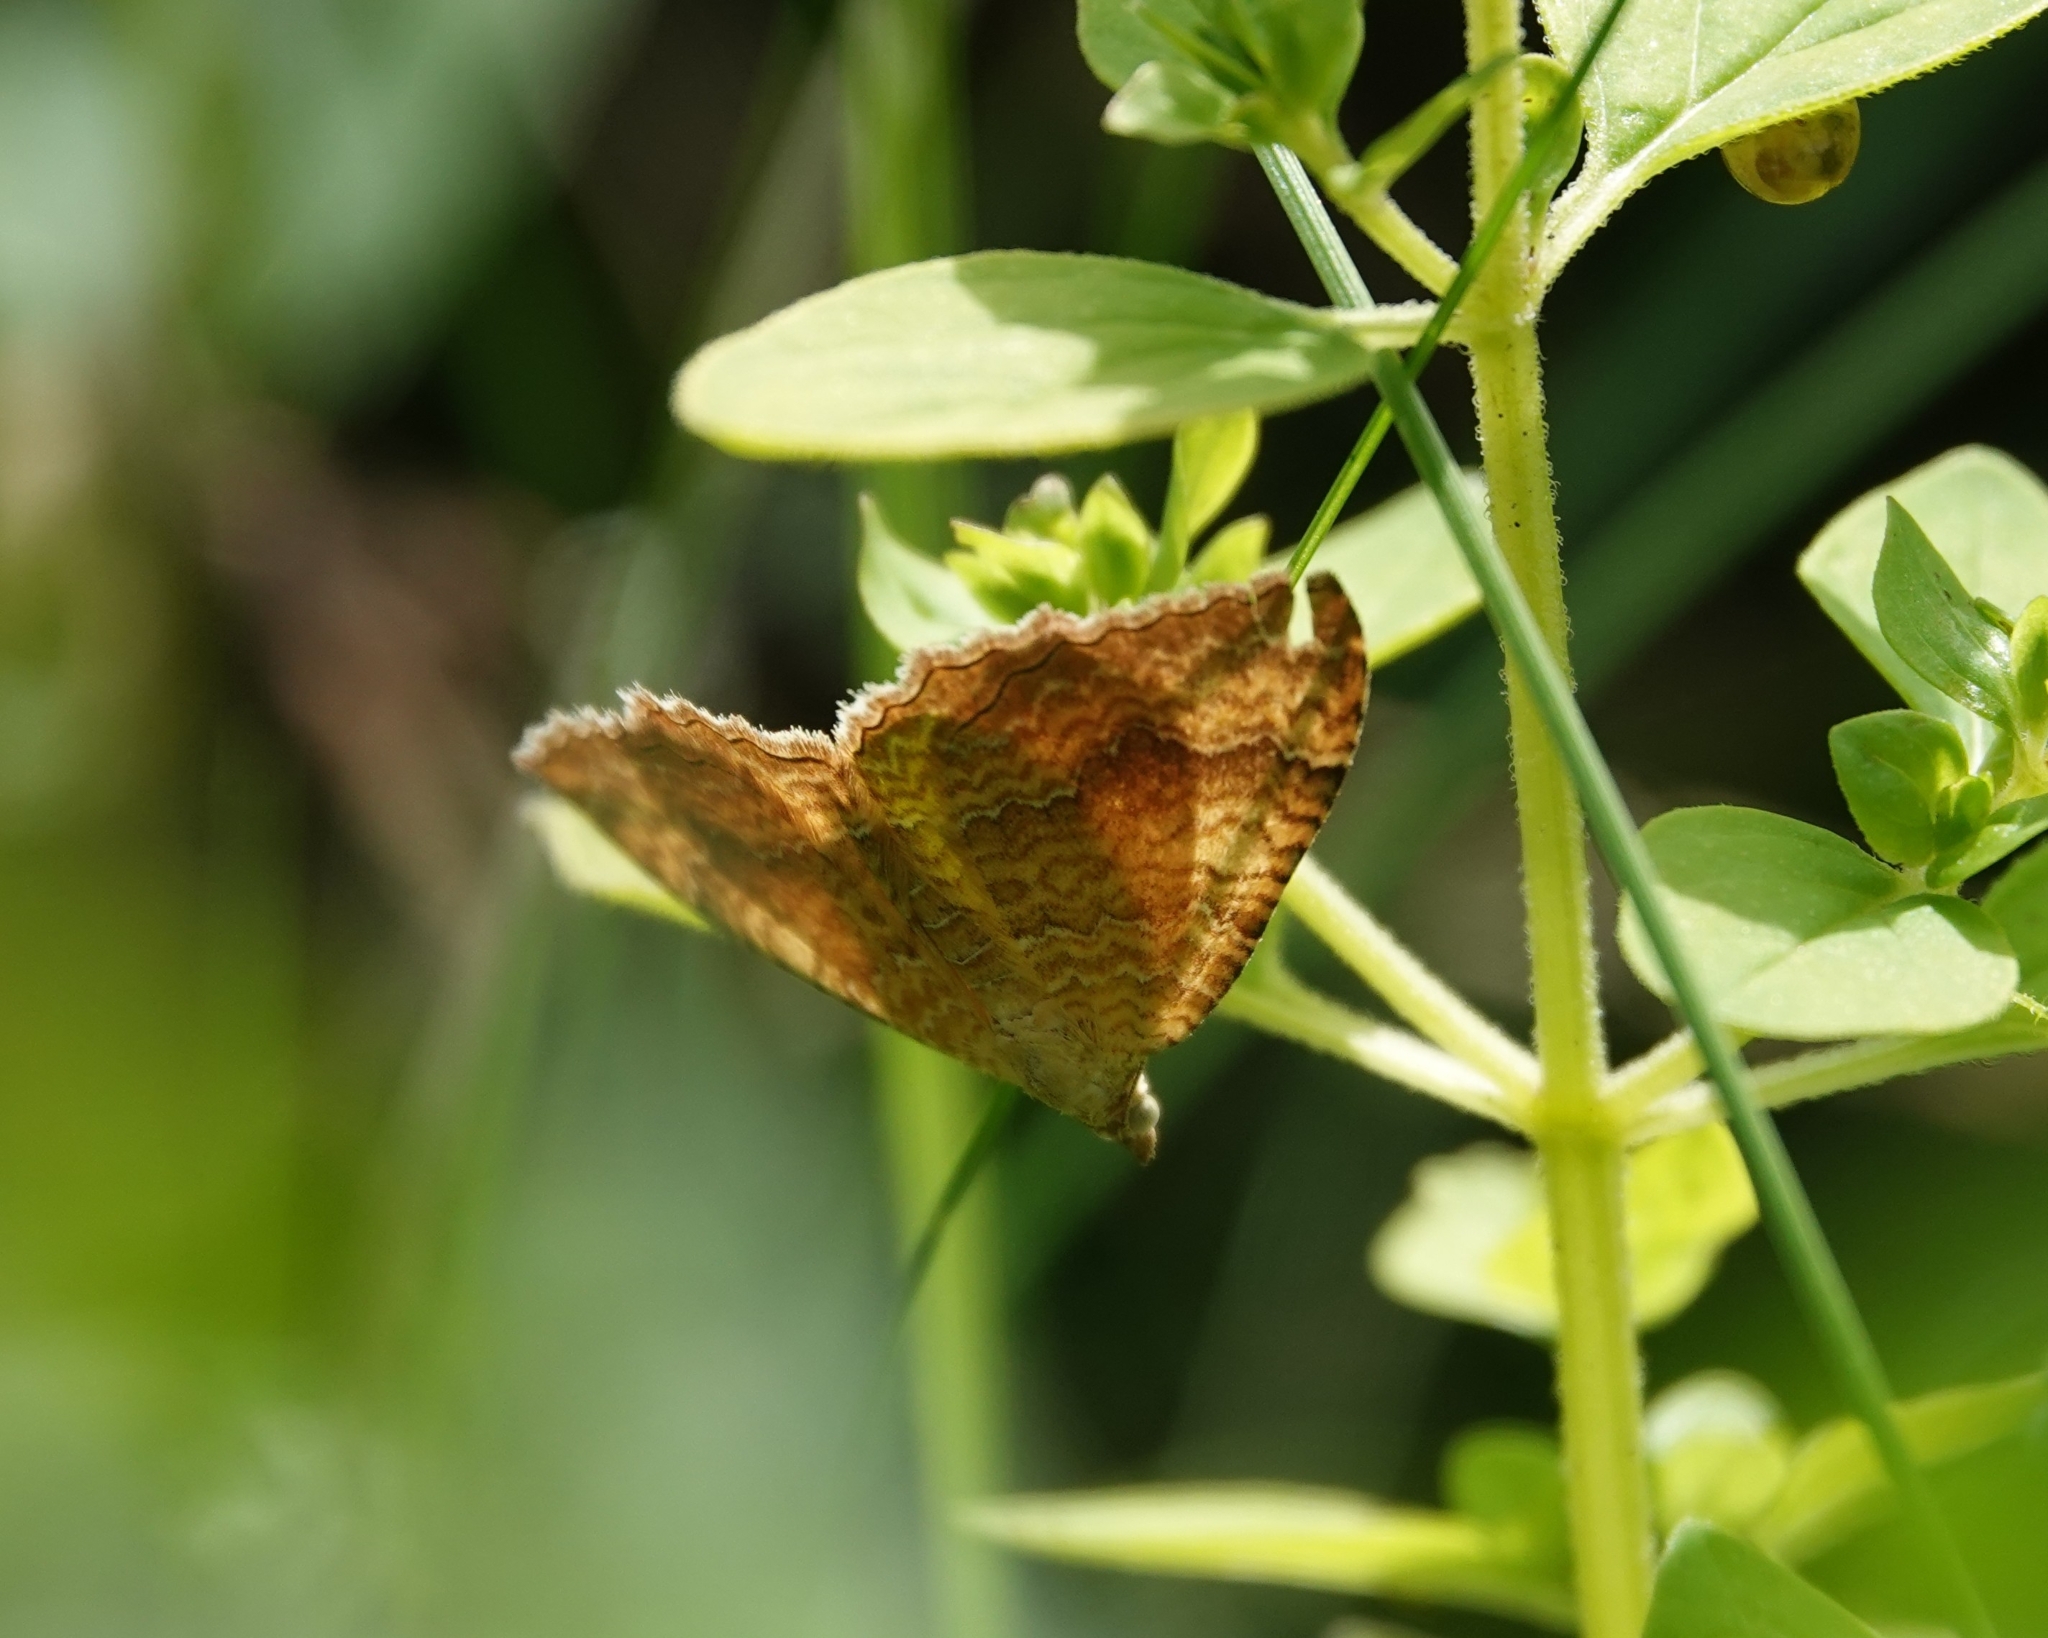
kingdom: Animalia
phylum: Arthropoda
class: Insecta
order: Lepidoptera
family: Geometridae
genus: Camptogramma
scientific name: Camptogramma bilineata
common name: Yellow shell
